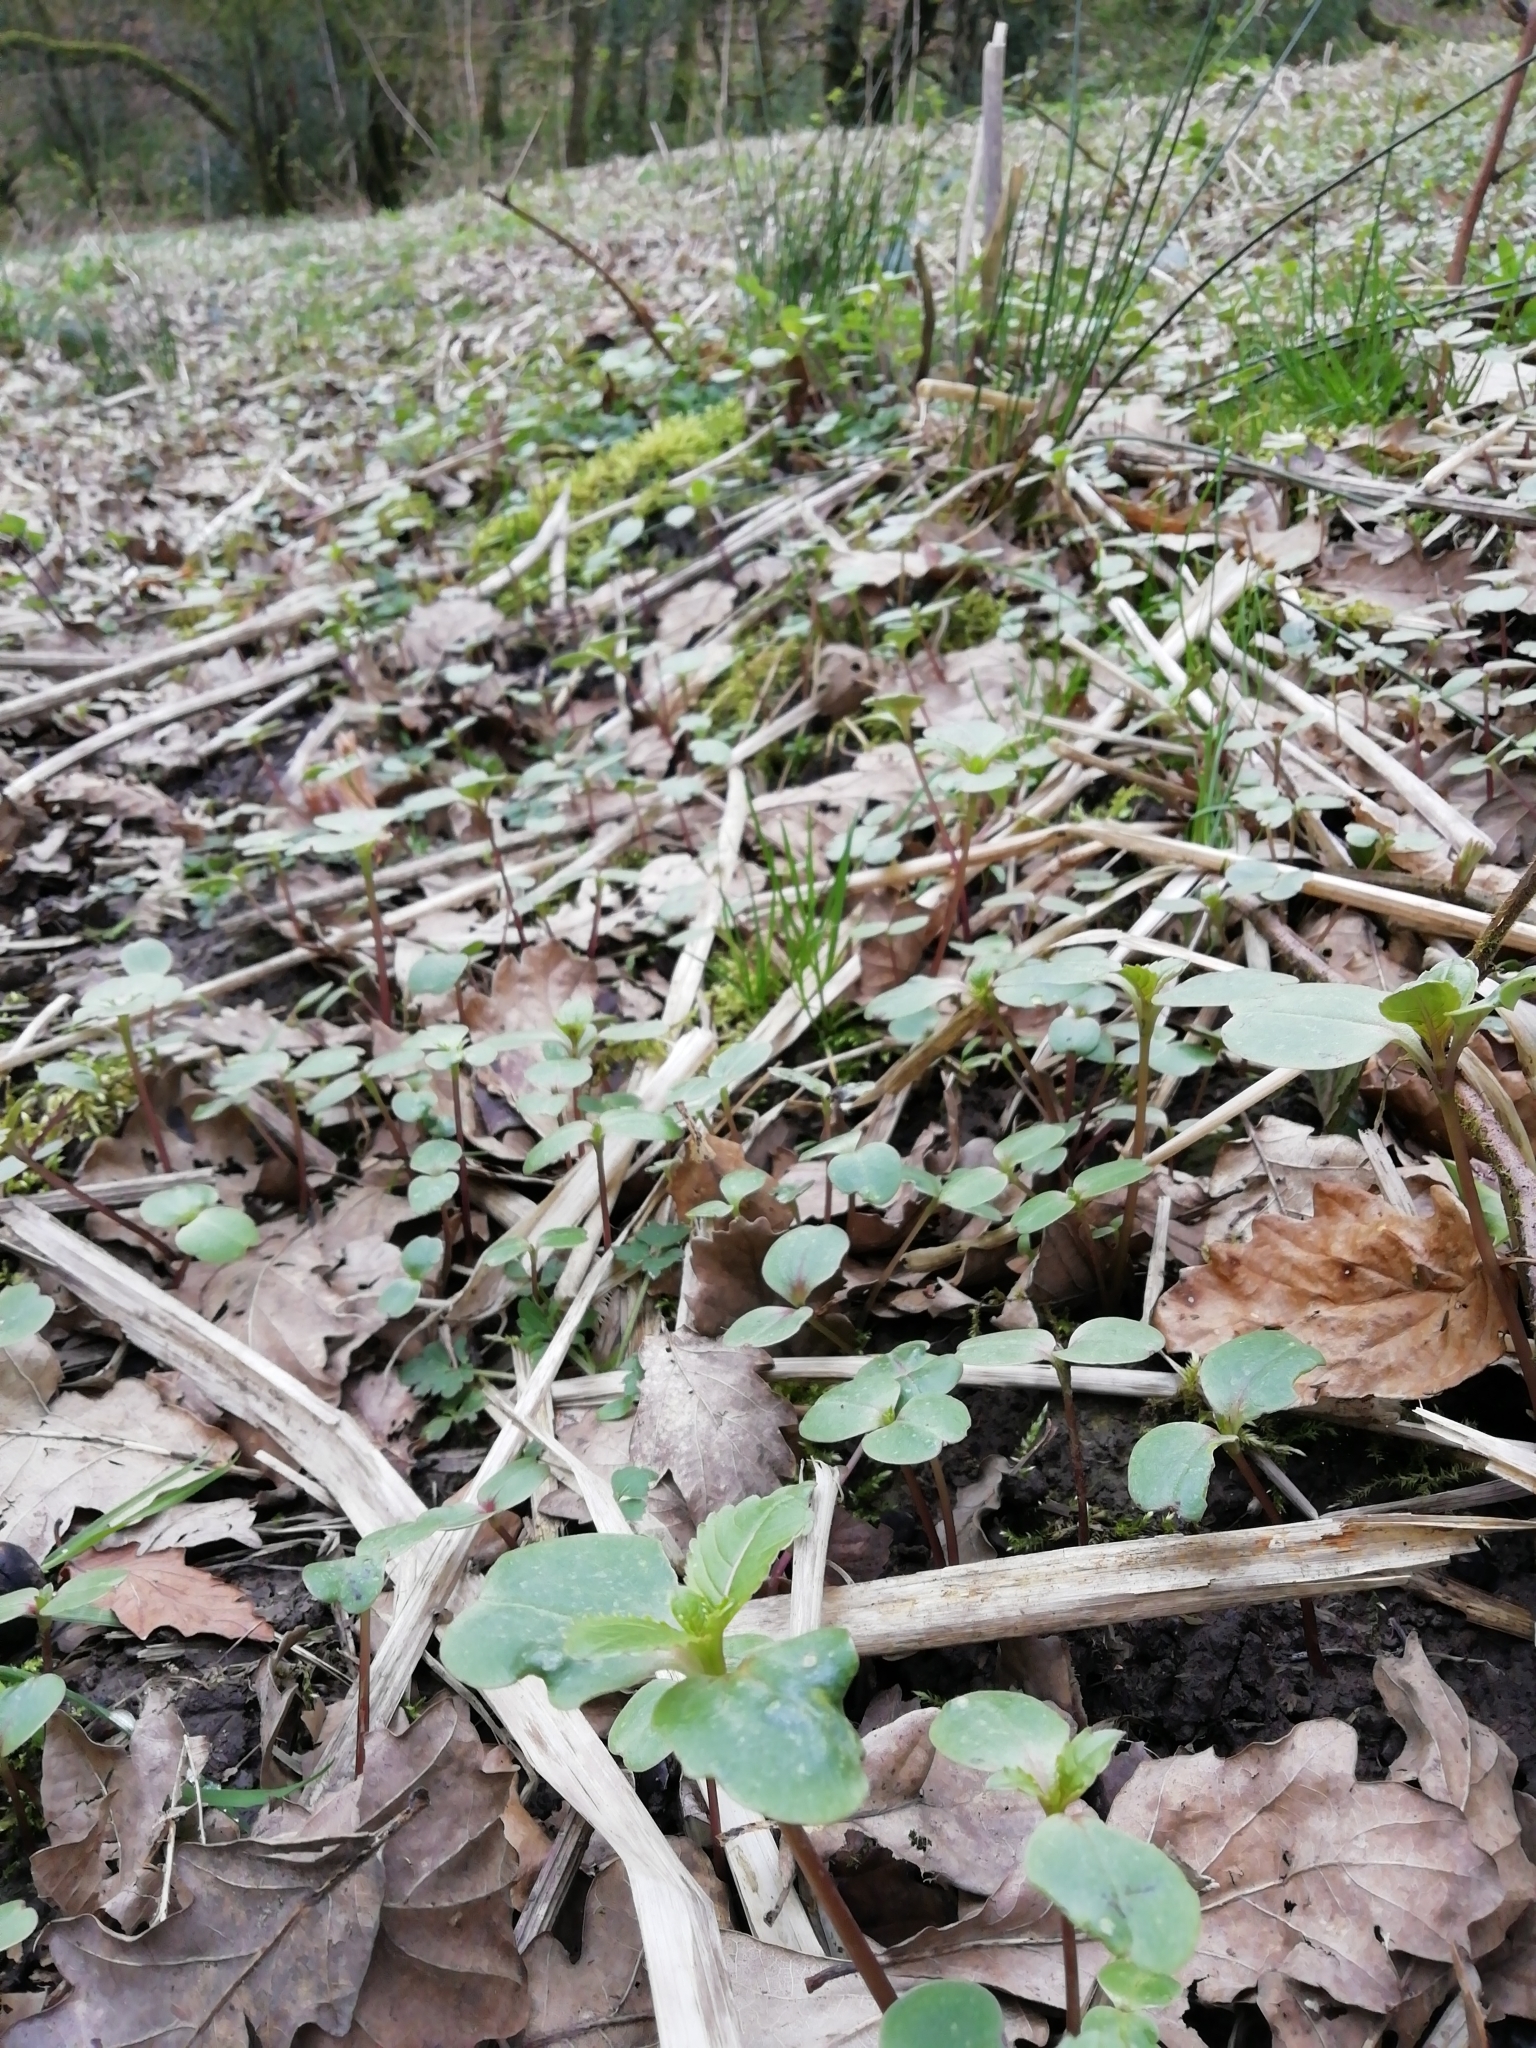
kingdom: Plantae
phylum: Tracheophyta
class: Magnoliopsida
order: Ericales
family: Balsaminaceae
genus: Impatiens
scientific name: Impatiens glandulifera
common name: Himalayan balsam
